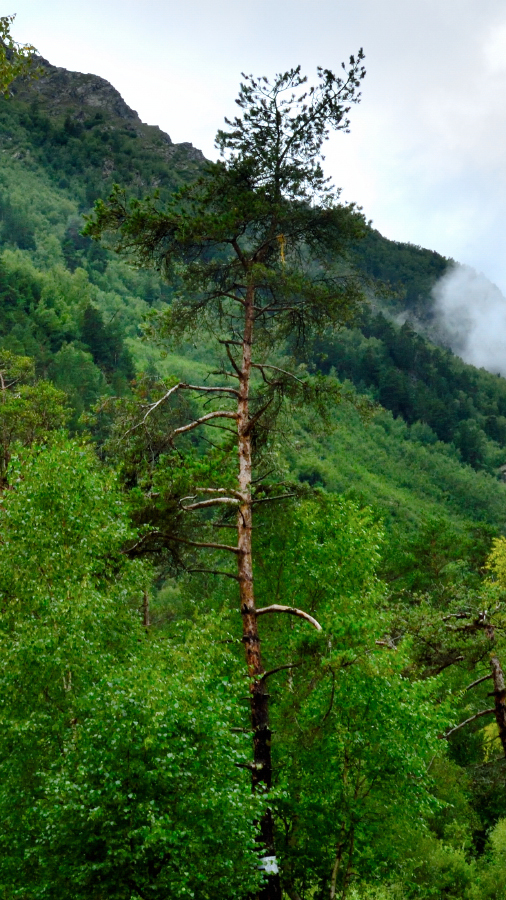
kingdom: Plantae
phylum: Tracheophyta
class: Pinopsida
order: Pinales
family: Pinaceae
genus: Pinus
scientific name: Pinus sylvestris
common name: Scots pine
